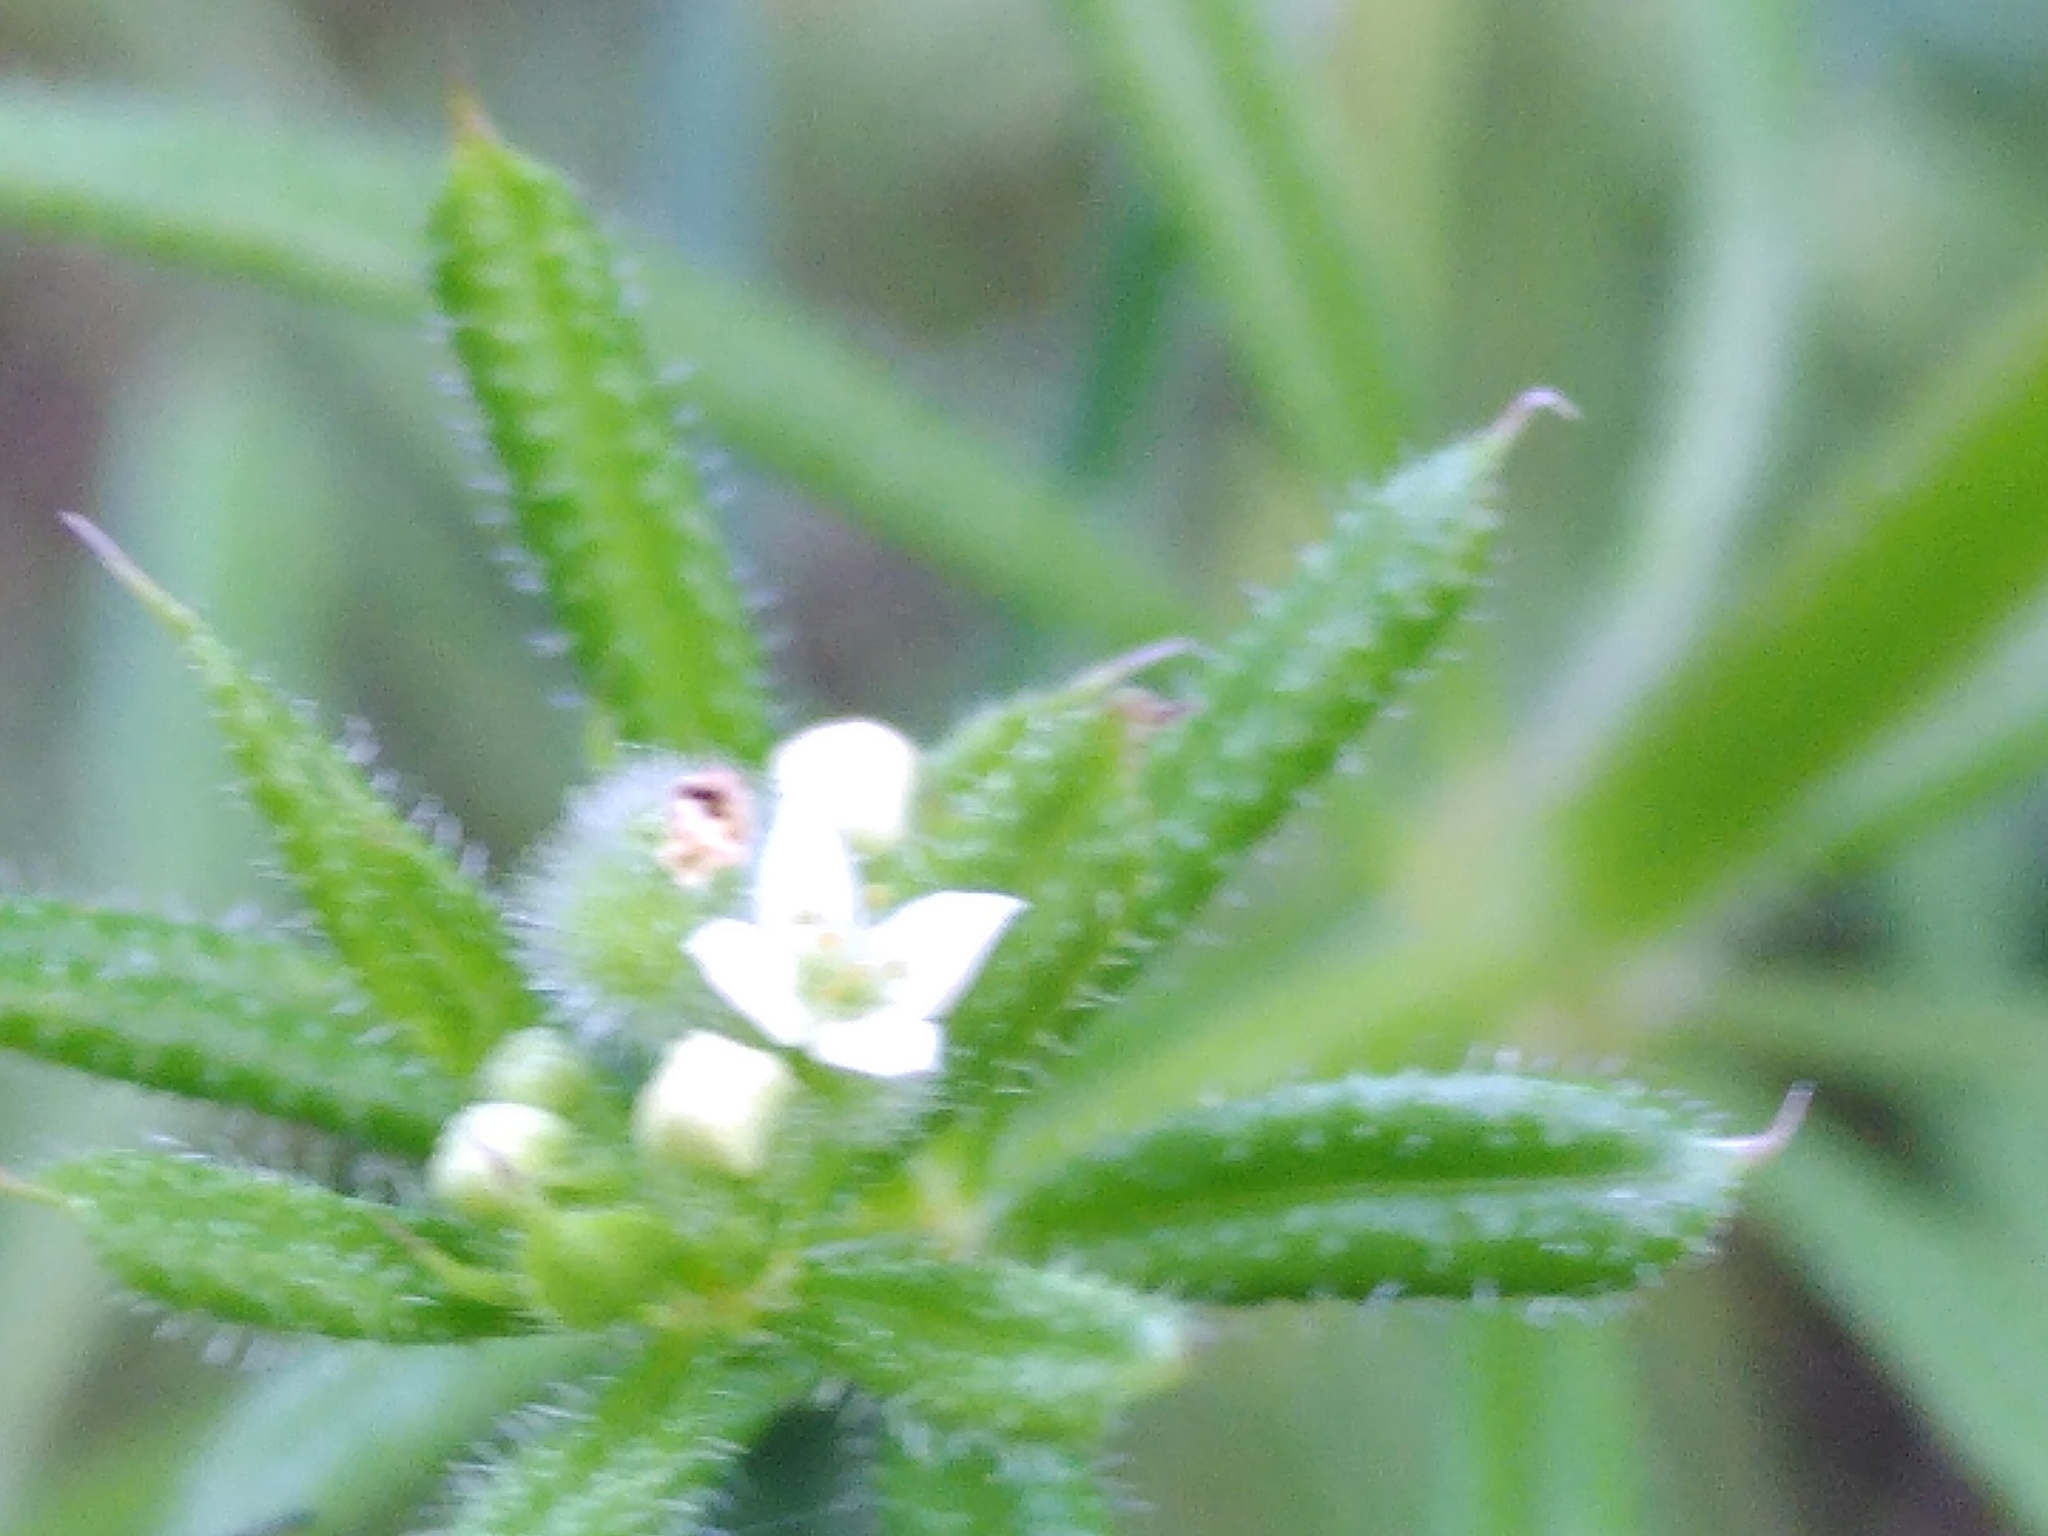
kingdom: Plantae
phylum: Tracheophyta
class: Magnoliopsida
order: Gentianales
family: Rubiaceae
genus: Galium
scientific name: Galium aparine
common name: Cleavers
